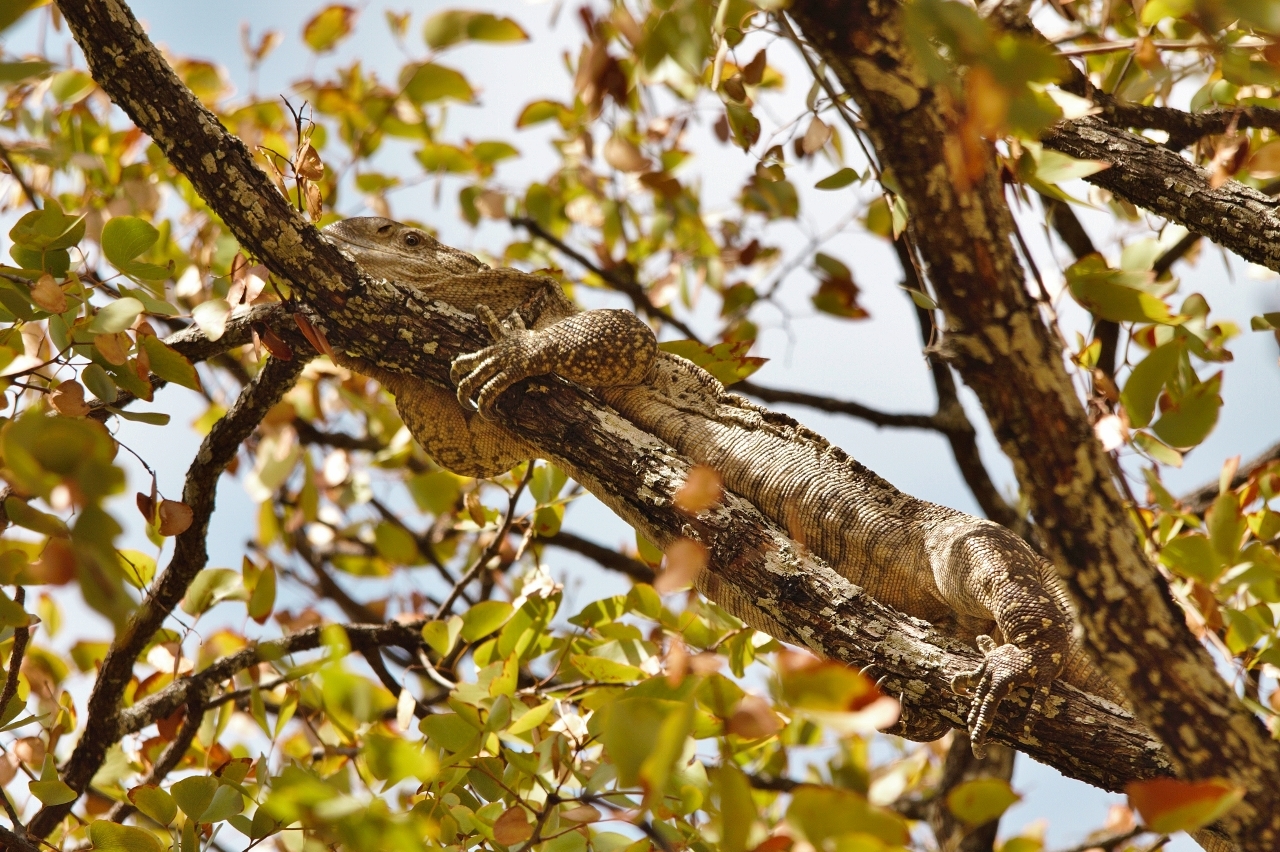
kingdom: Animalia
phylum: Chordata
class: Squamata
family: Varanidae
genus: Varanus
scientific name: Varanus albigularis
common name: White-throated monitor
